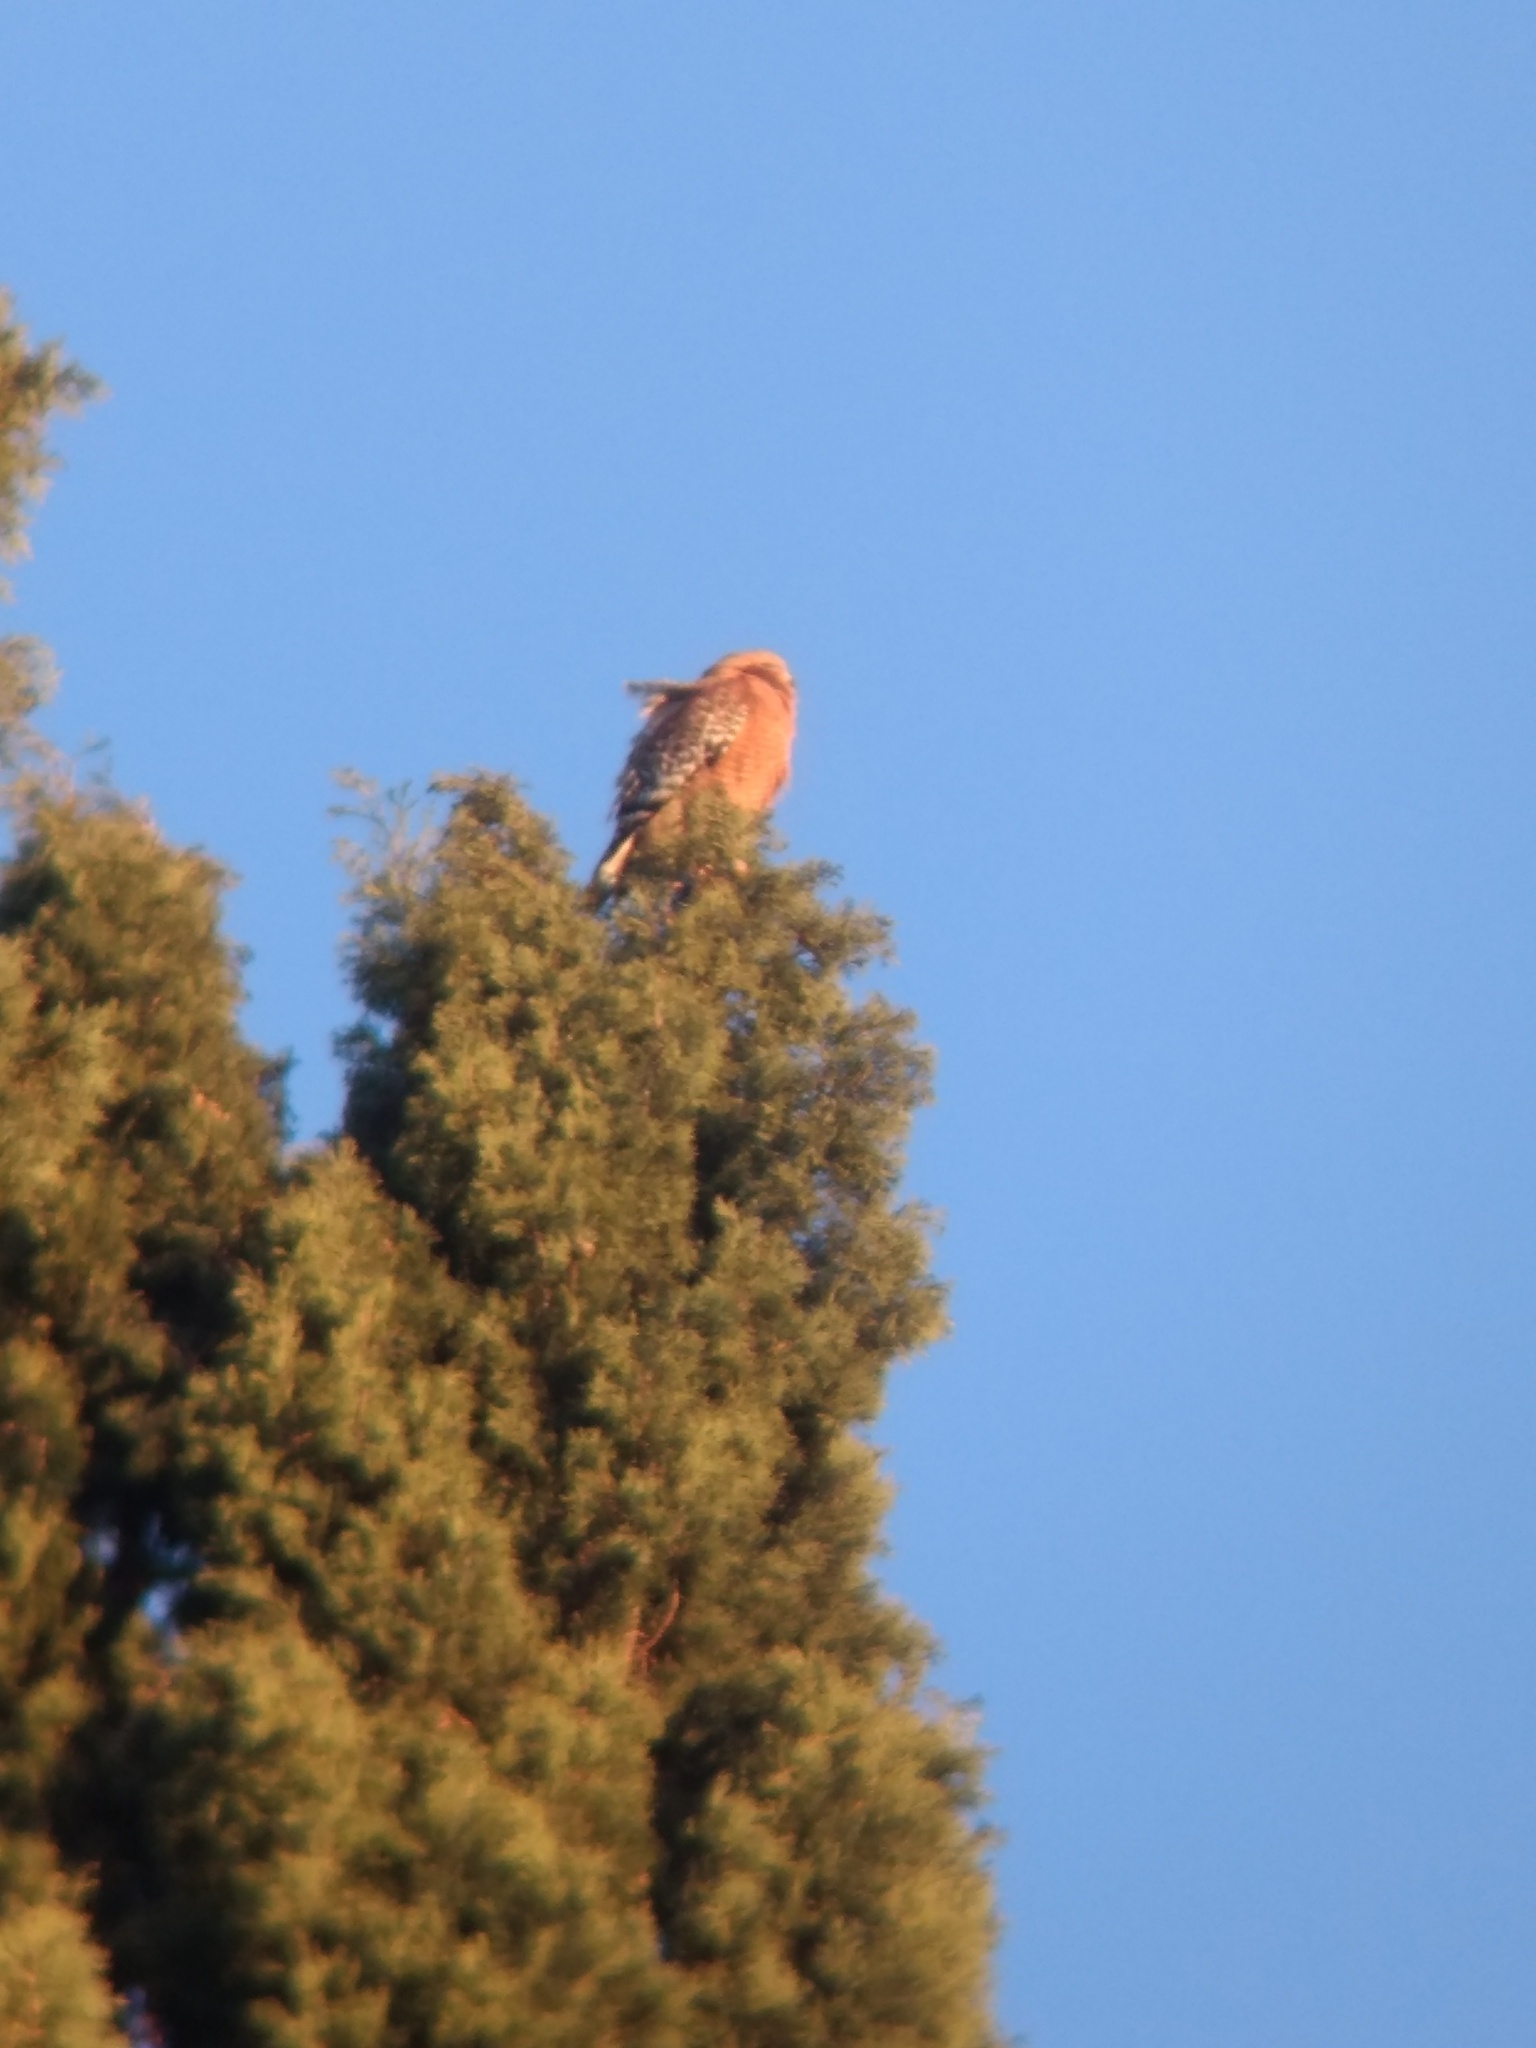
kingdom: Animalia
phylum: Chordata
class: Aves
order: Accipitriformes
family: Accipitridae
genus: Buteo
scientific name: Buteo lineatus
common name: Red-shouldered hawk
